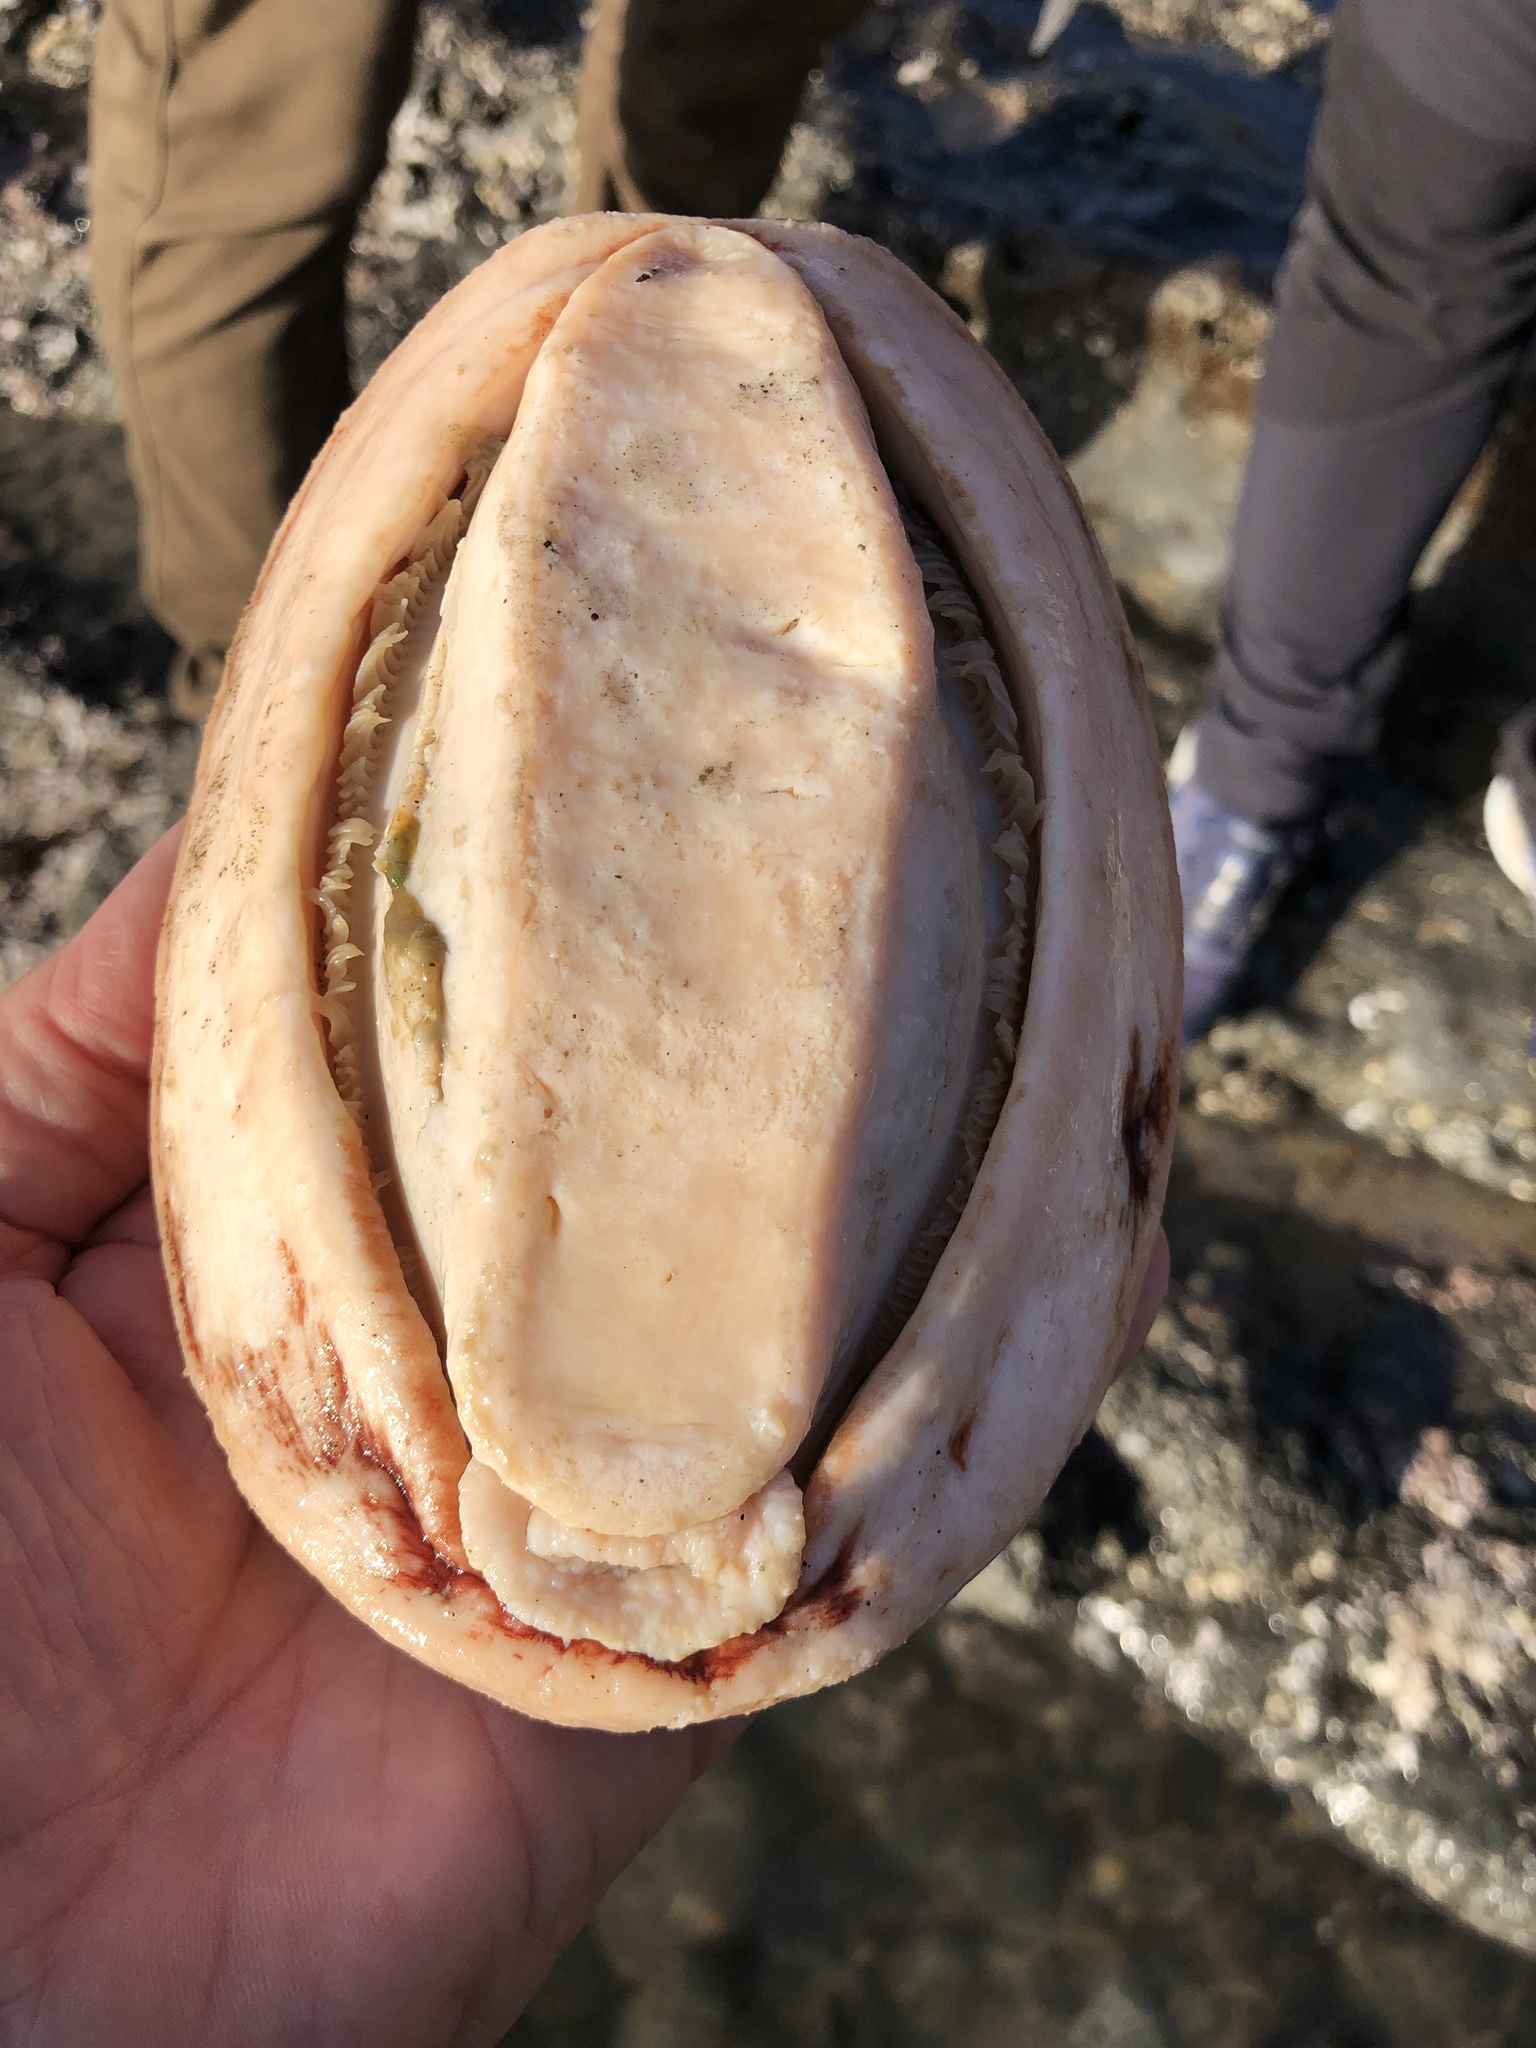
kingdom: Animalia
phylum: Mollusca
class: Polyplacophora
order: Chitonida
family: Acanthochitonidae
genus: Cryptochiton
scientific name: Cryptochiton stelleri
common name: Giant pacific chiton
